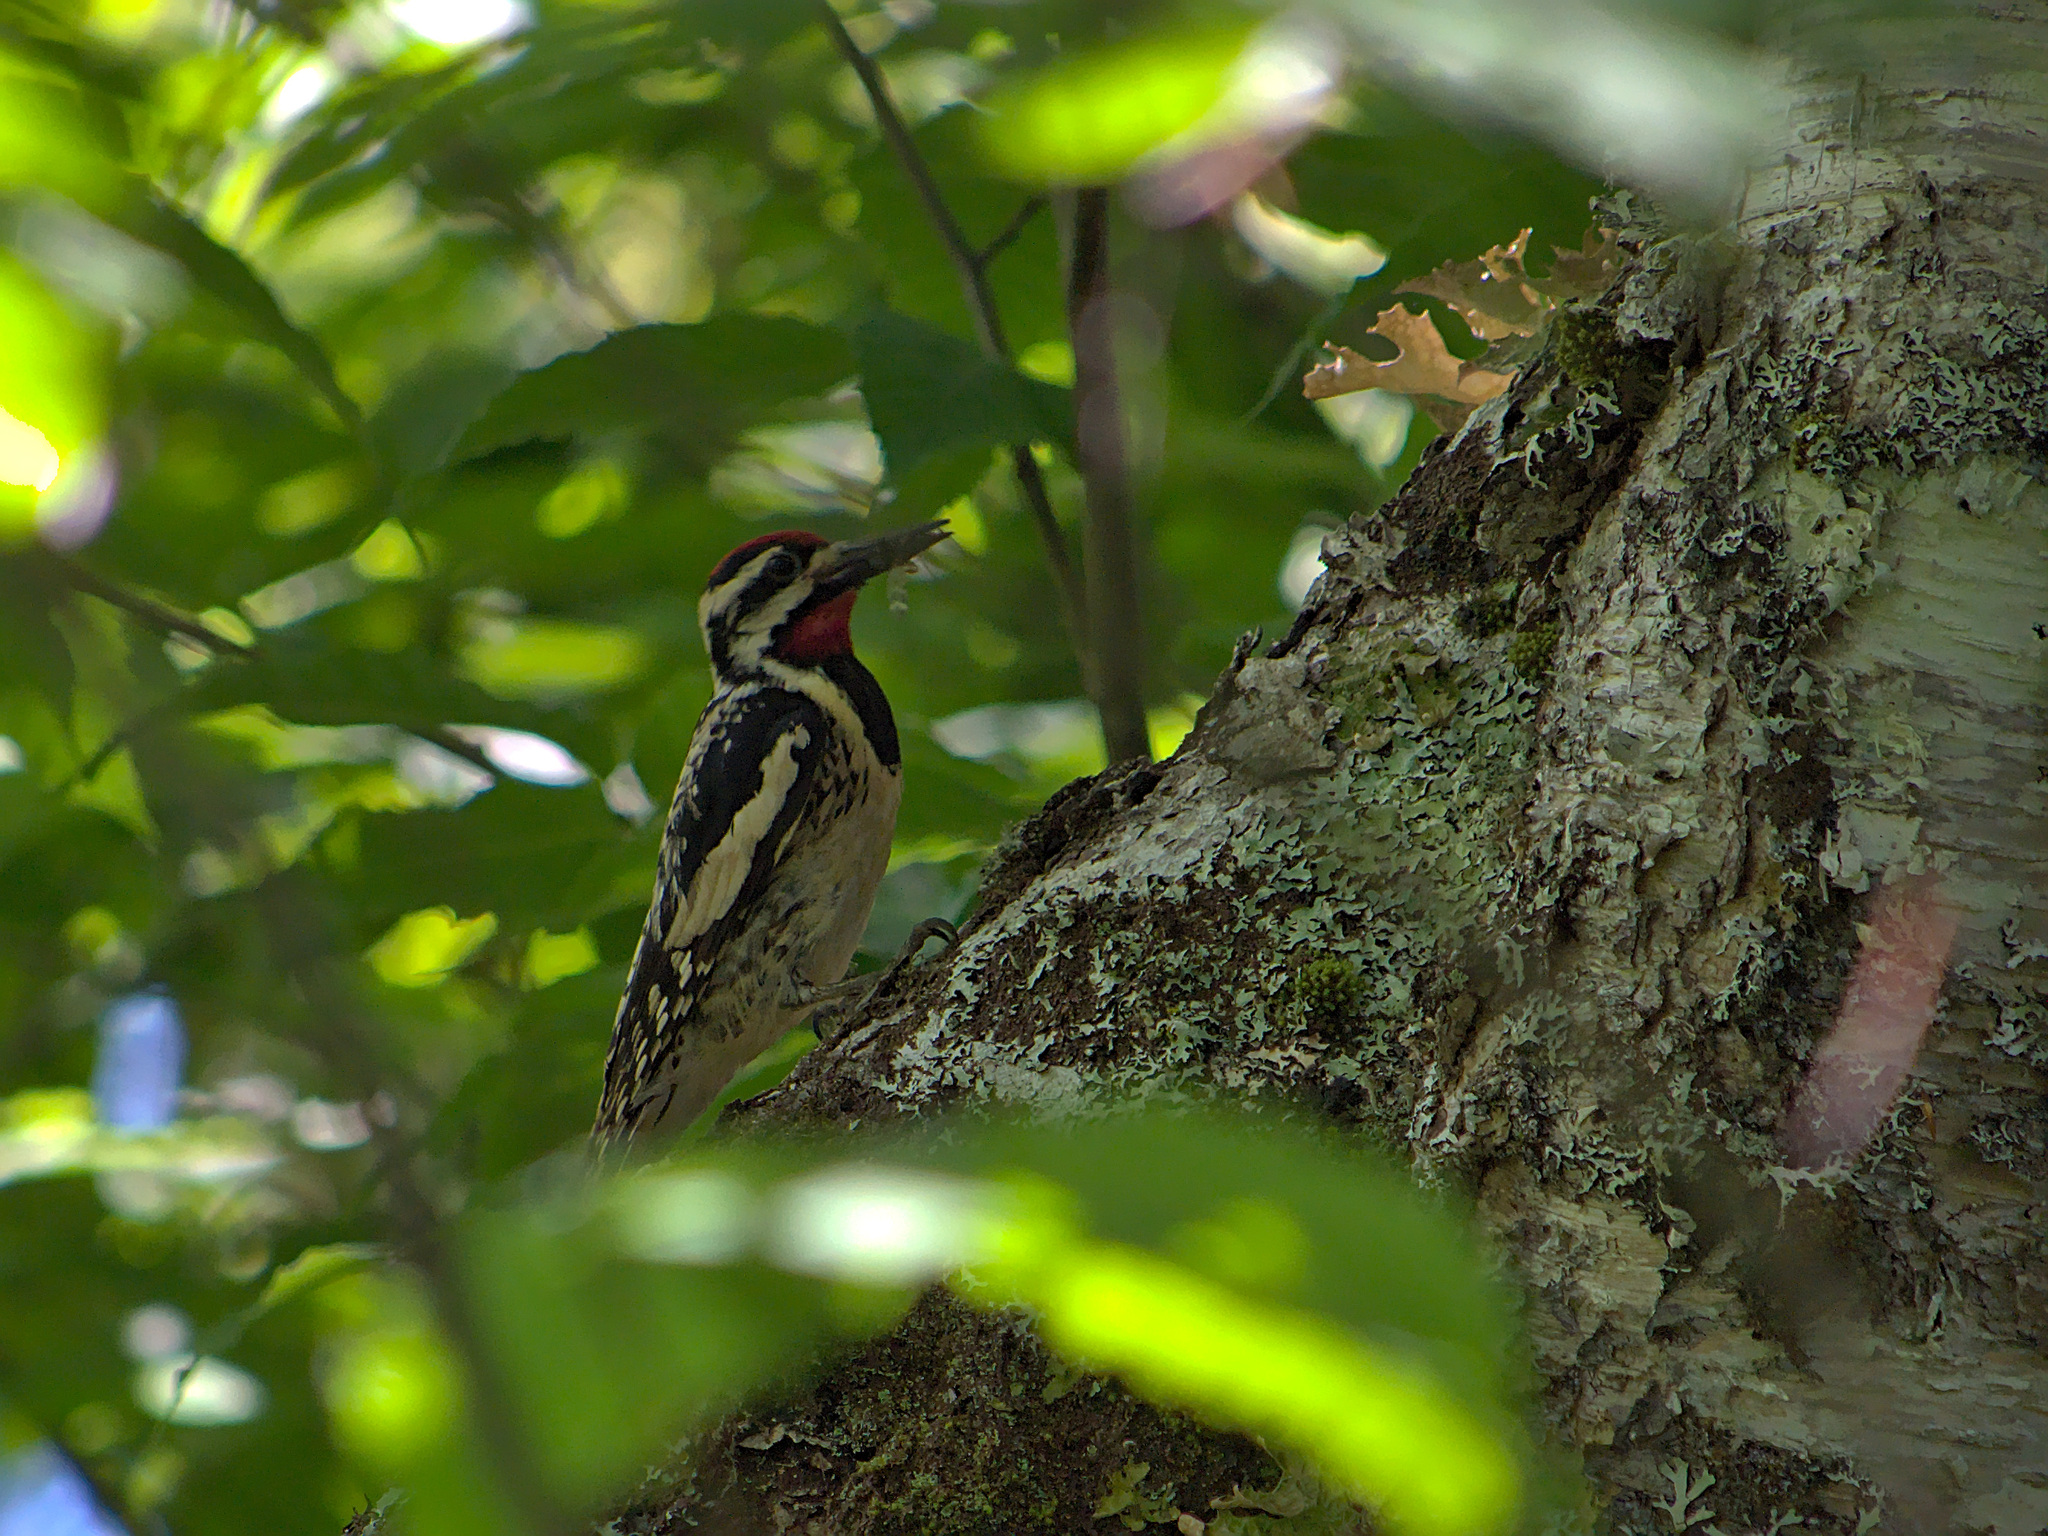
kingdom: Animalia
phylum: Chordata
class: Aves
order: Piciformes
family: Picidae
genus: Sphyrapicus
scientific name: Sphyrapicus varius
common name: Yellow-bellied sapsucker
